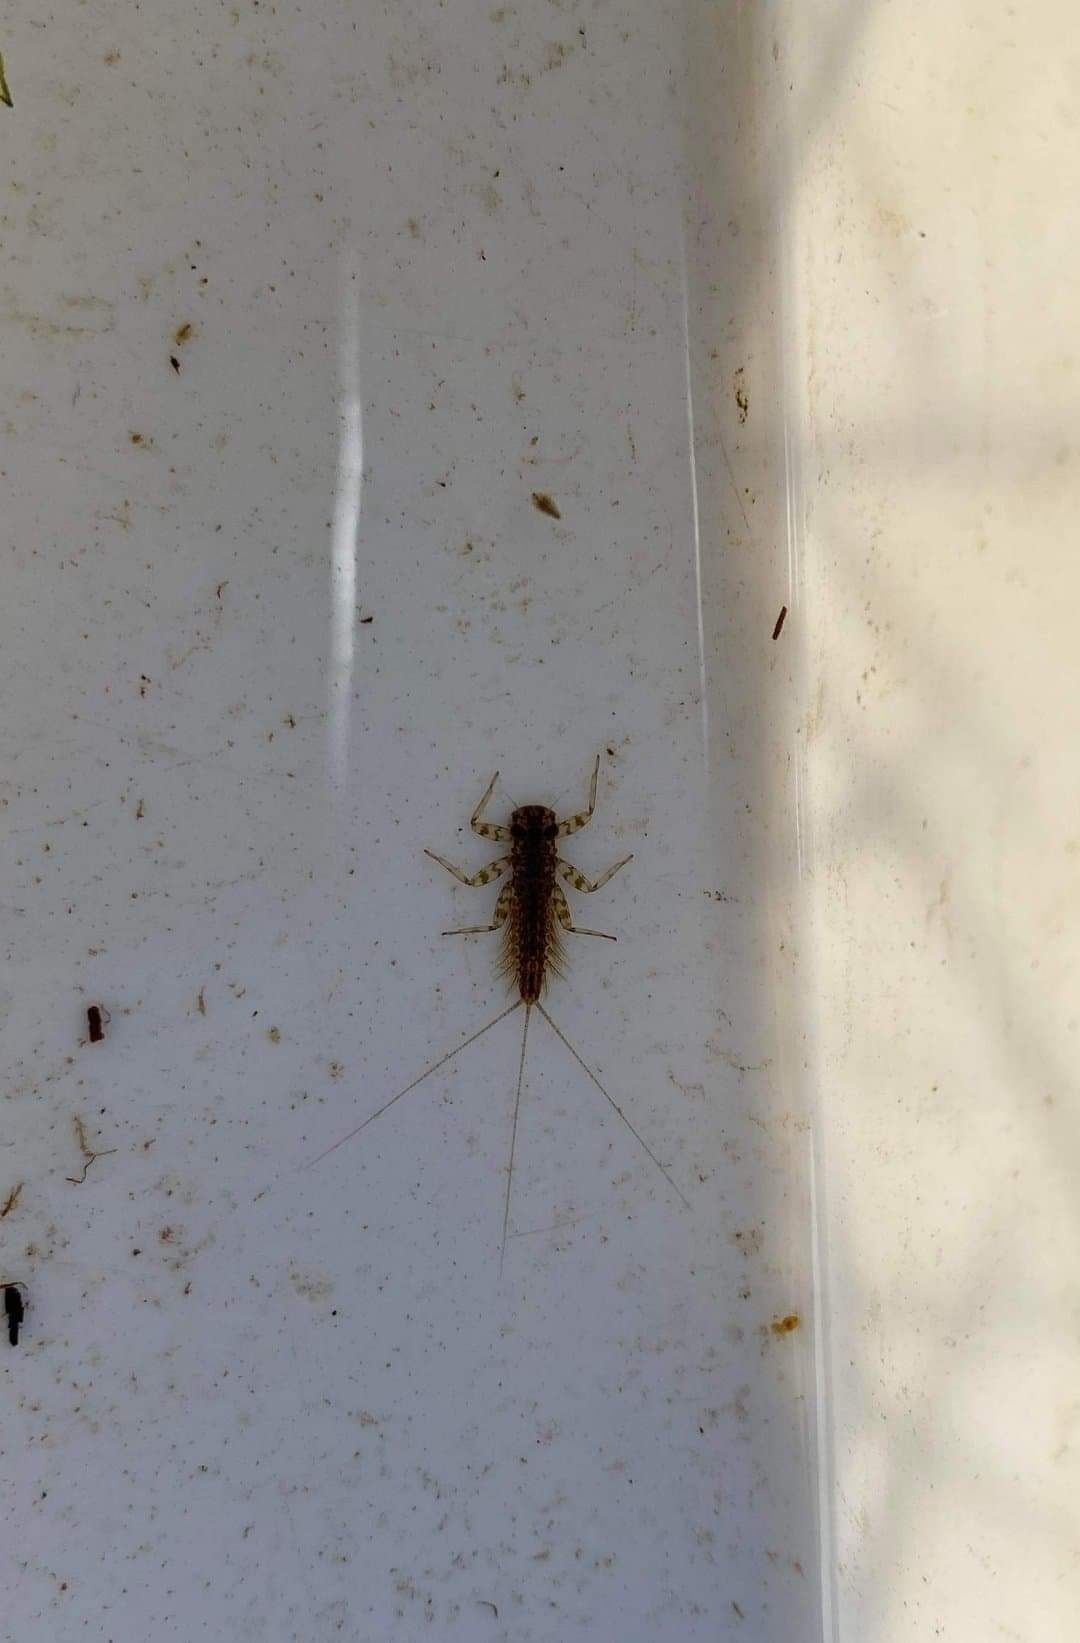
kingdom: Animalia
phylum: Arthropoda
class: Insecta
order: Ephemeroptera
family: Heptageniidae
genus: Kageronia
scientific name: Kageronia fuscogrisea
